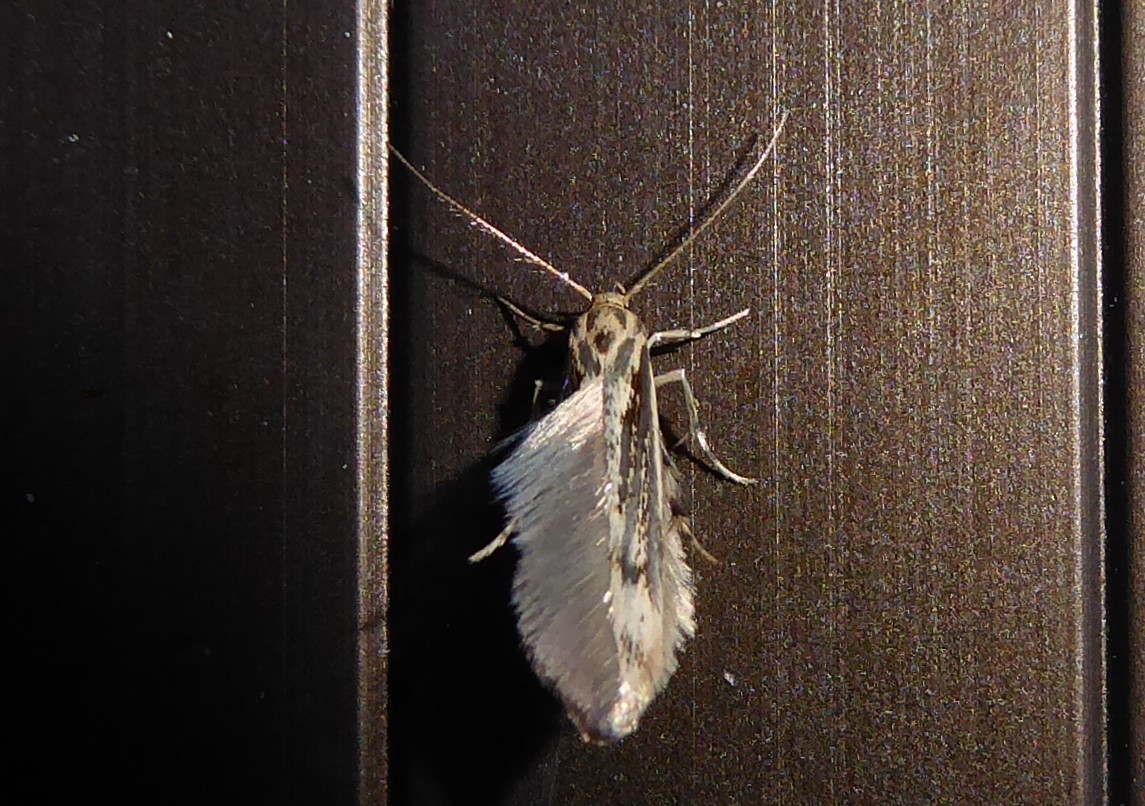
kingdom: Animalia
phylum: Arthropoda
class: Insecta
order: Lepidoptera
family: Stathmopodidae
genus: Stathmopoda
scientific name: Stathmopoda aposema
